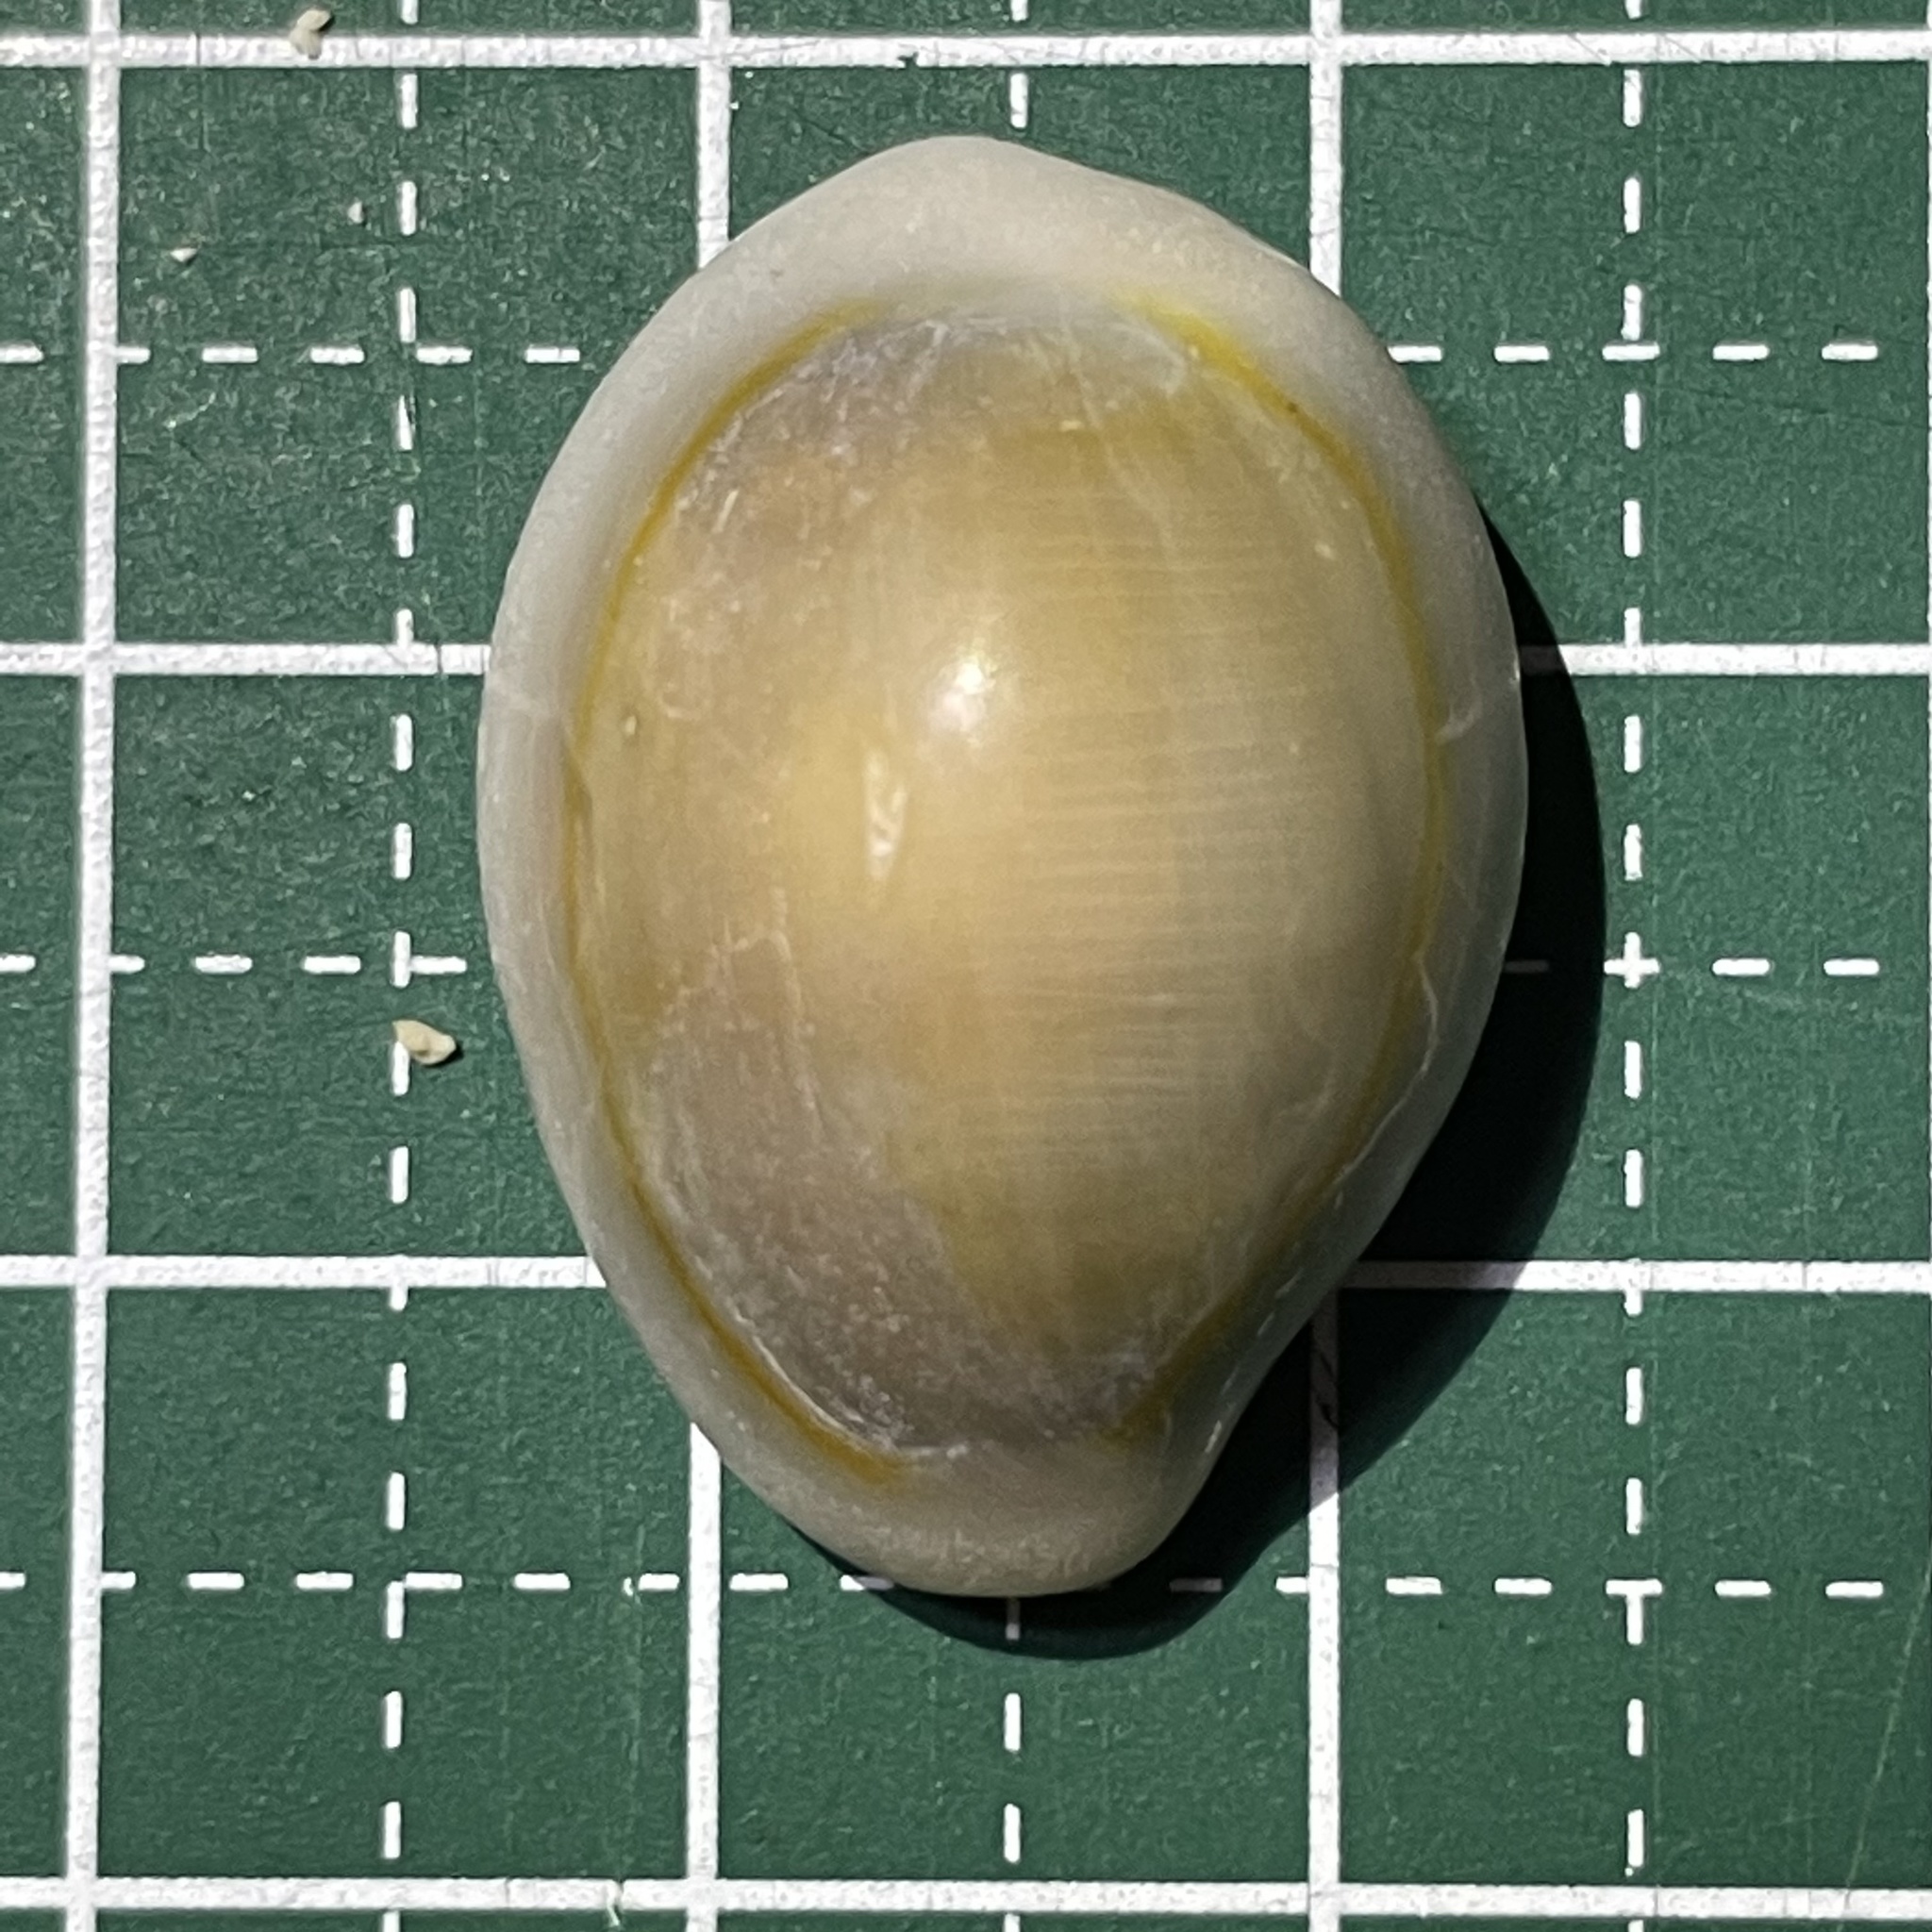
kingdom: Animalia
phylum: Mollusca
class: Gastropoda
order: Littorinimorpha
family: Cypraeidae
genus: Monetaria
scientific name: Monetaria annulus
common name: Ring cowrie
